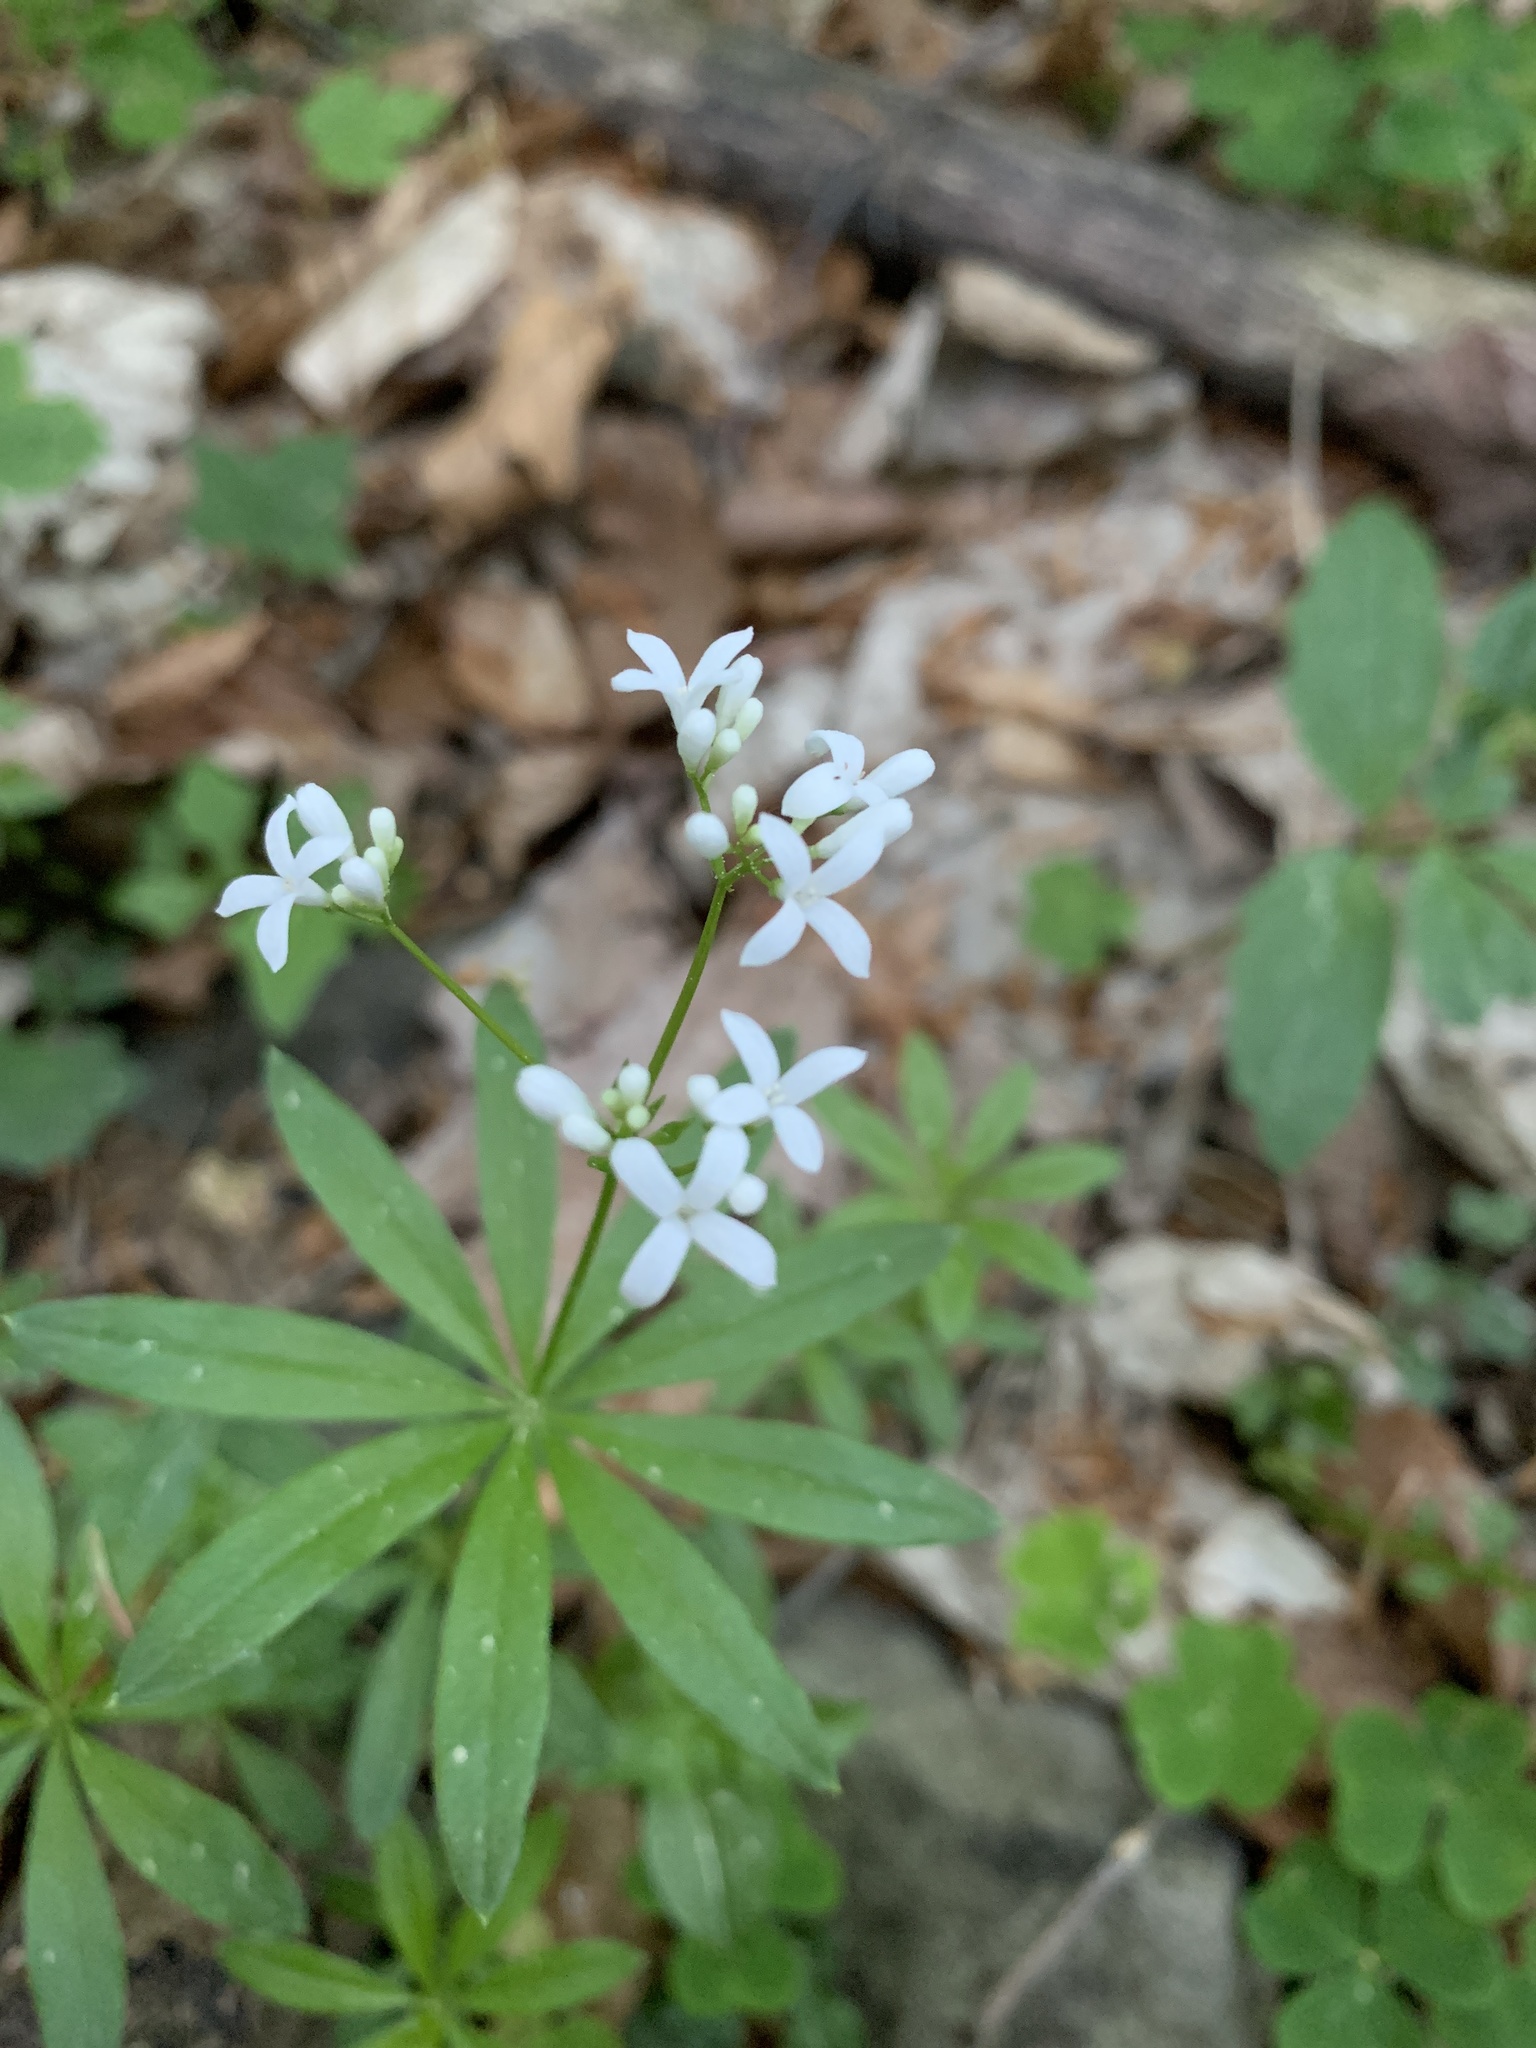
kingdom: Plantae
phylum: Tracheophyta
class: Magnoliopsida
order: Gentianales
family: Rubiaceae
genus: Galium
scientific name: Galium odoratum
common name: Sweet woodruff
